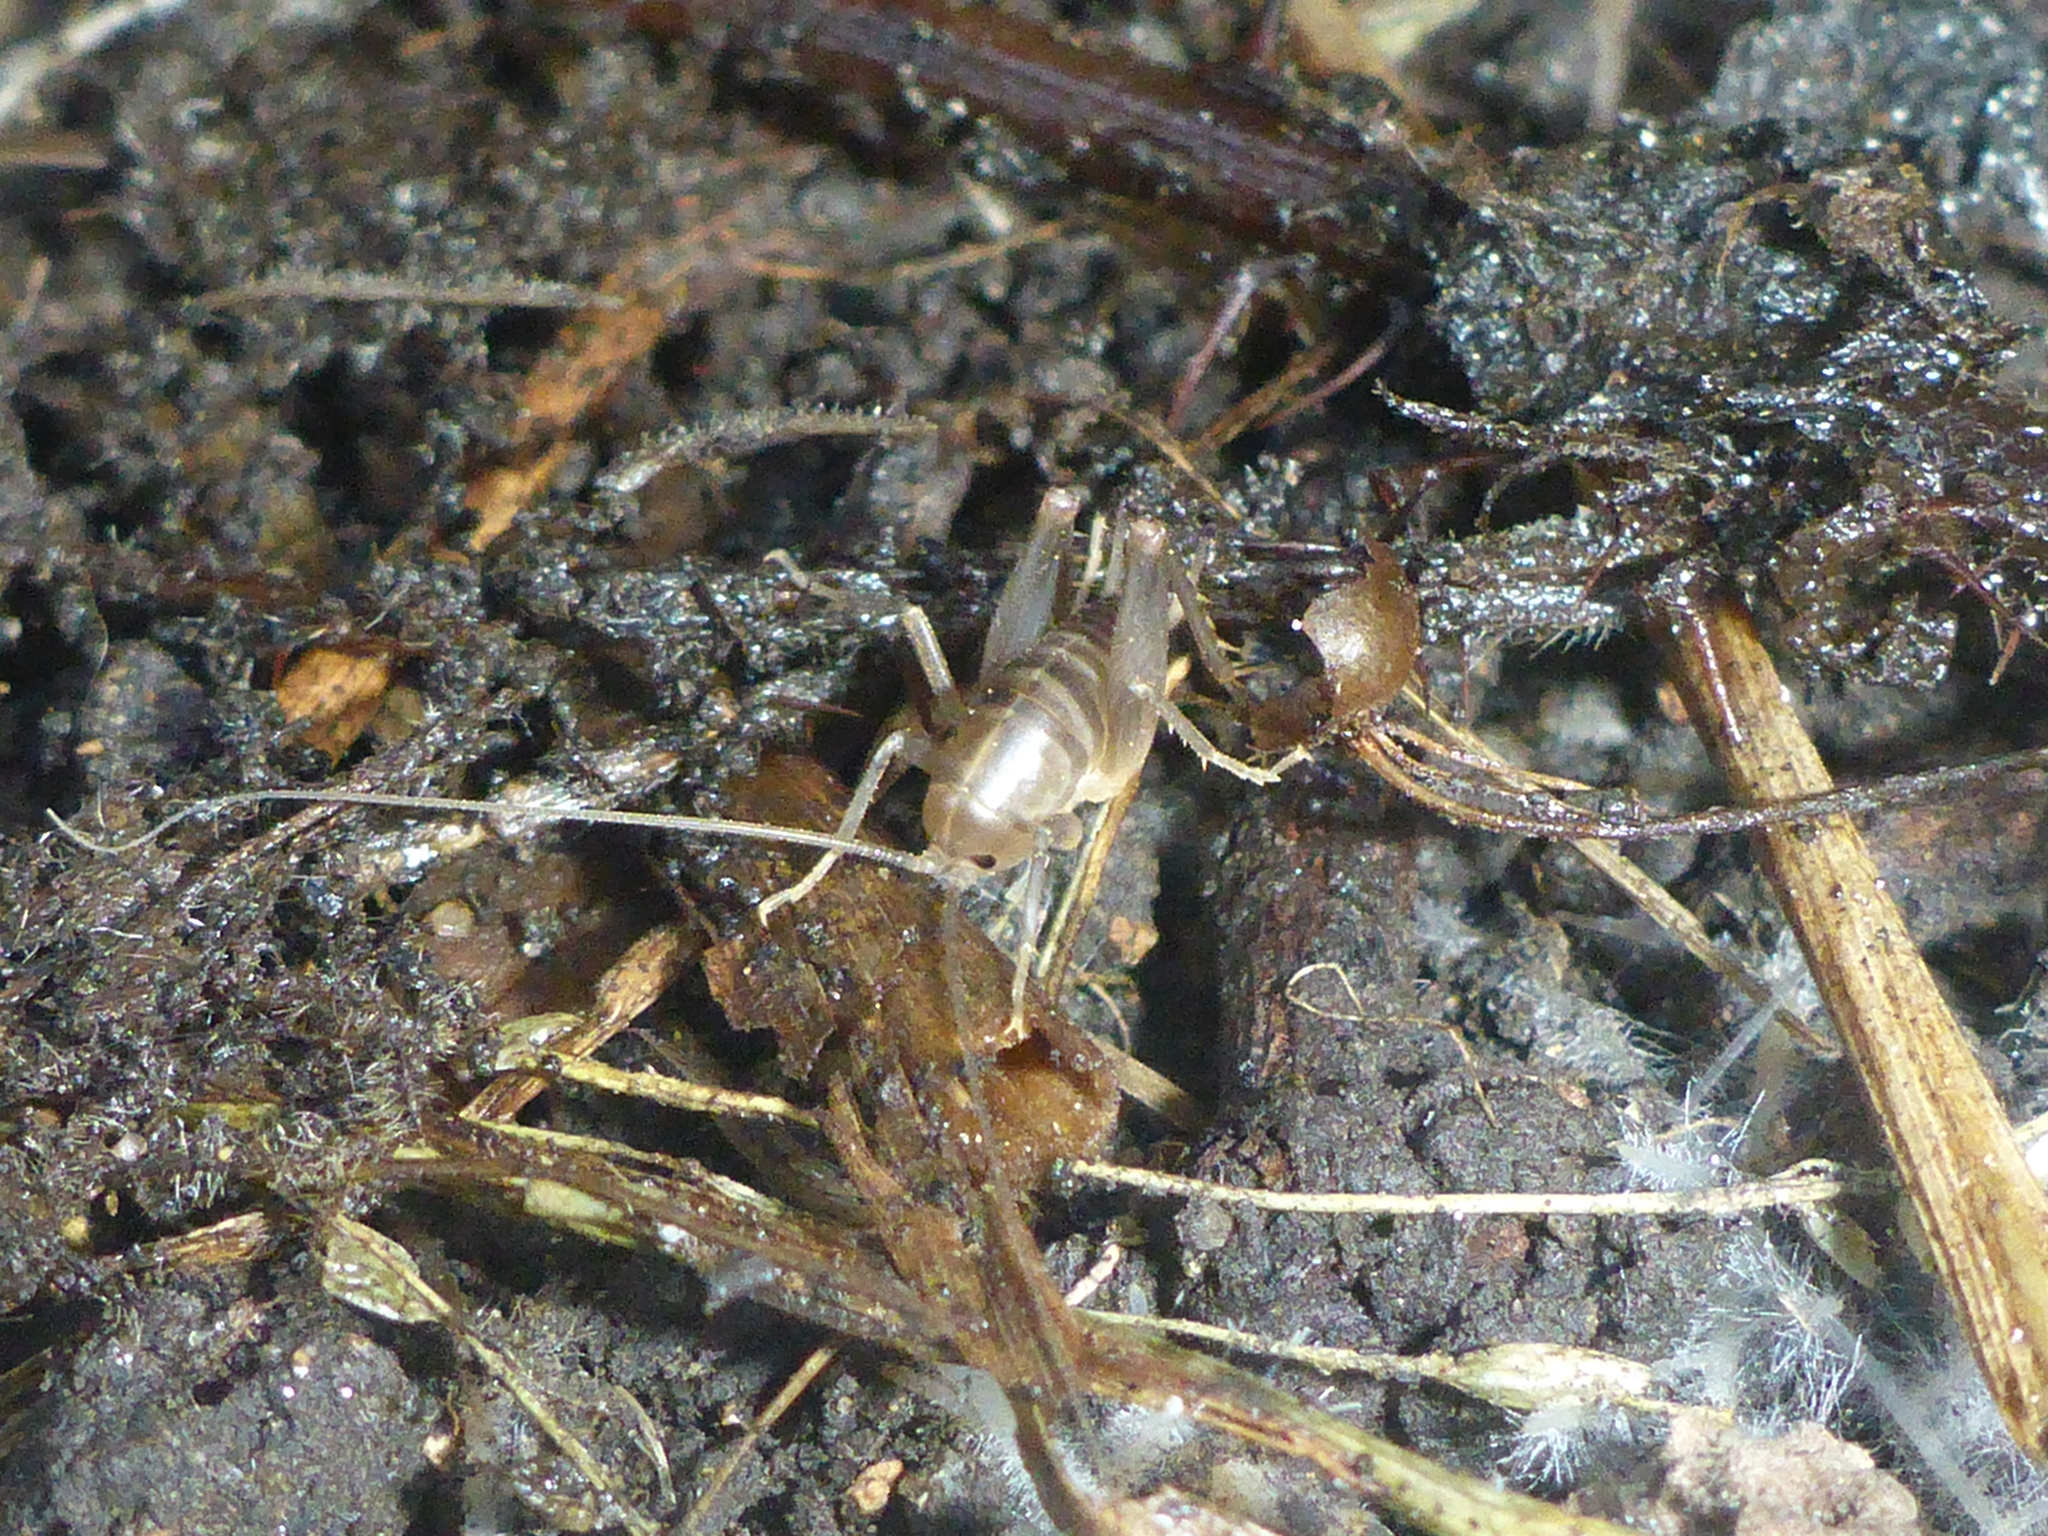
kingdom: Animalia
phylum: Arthropoda
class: Insecta
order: Orthoptera
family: Rhaphidophoridae
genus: Ceuthophilus
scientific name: Ceuthophilus californianus
